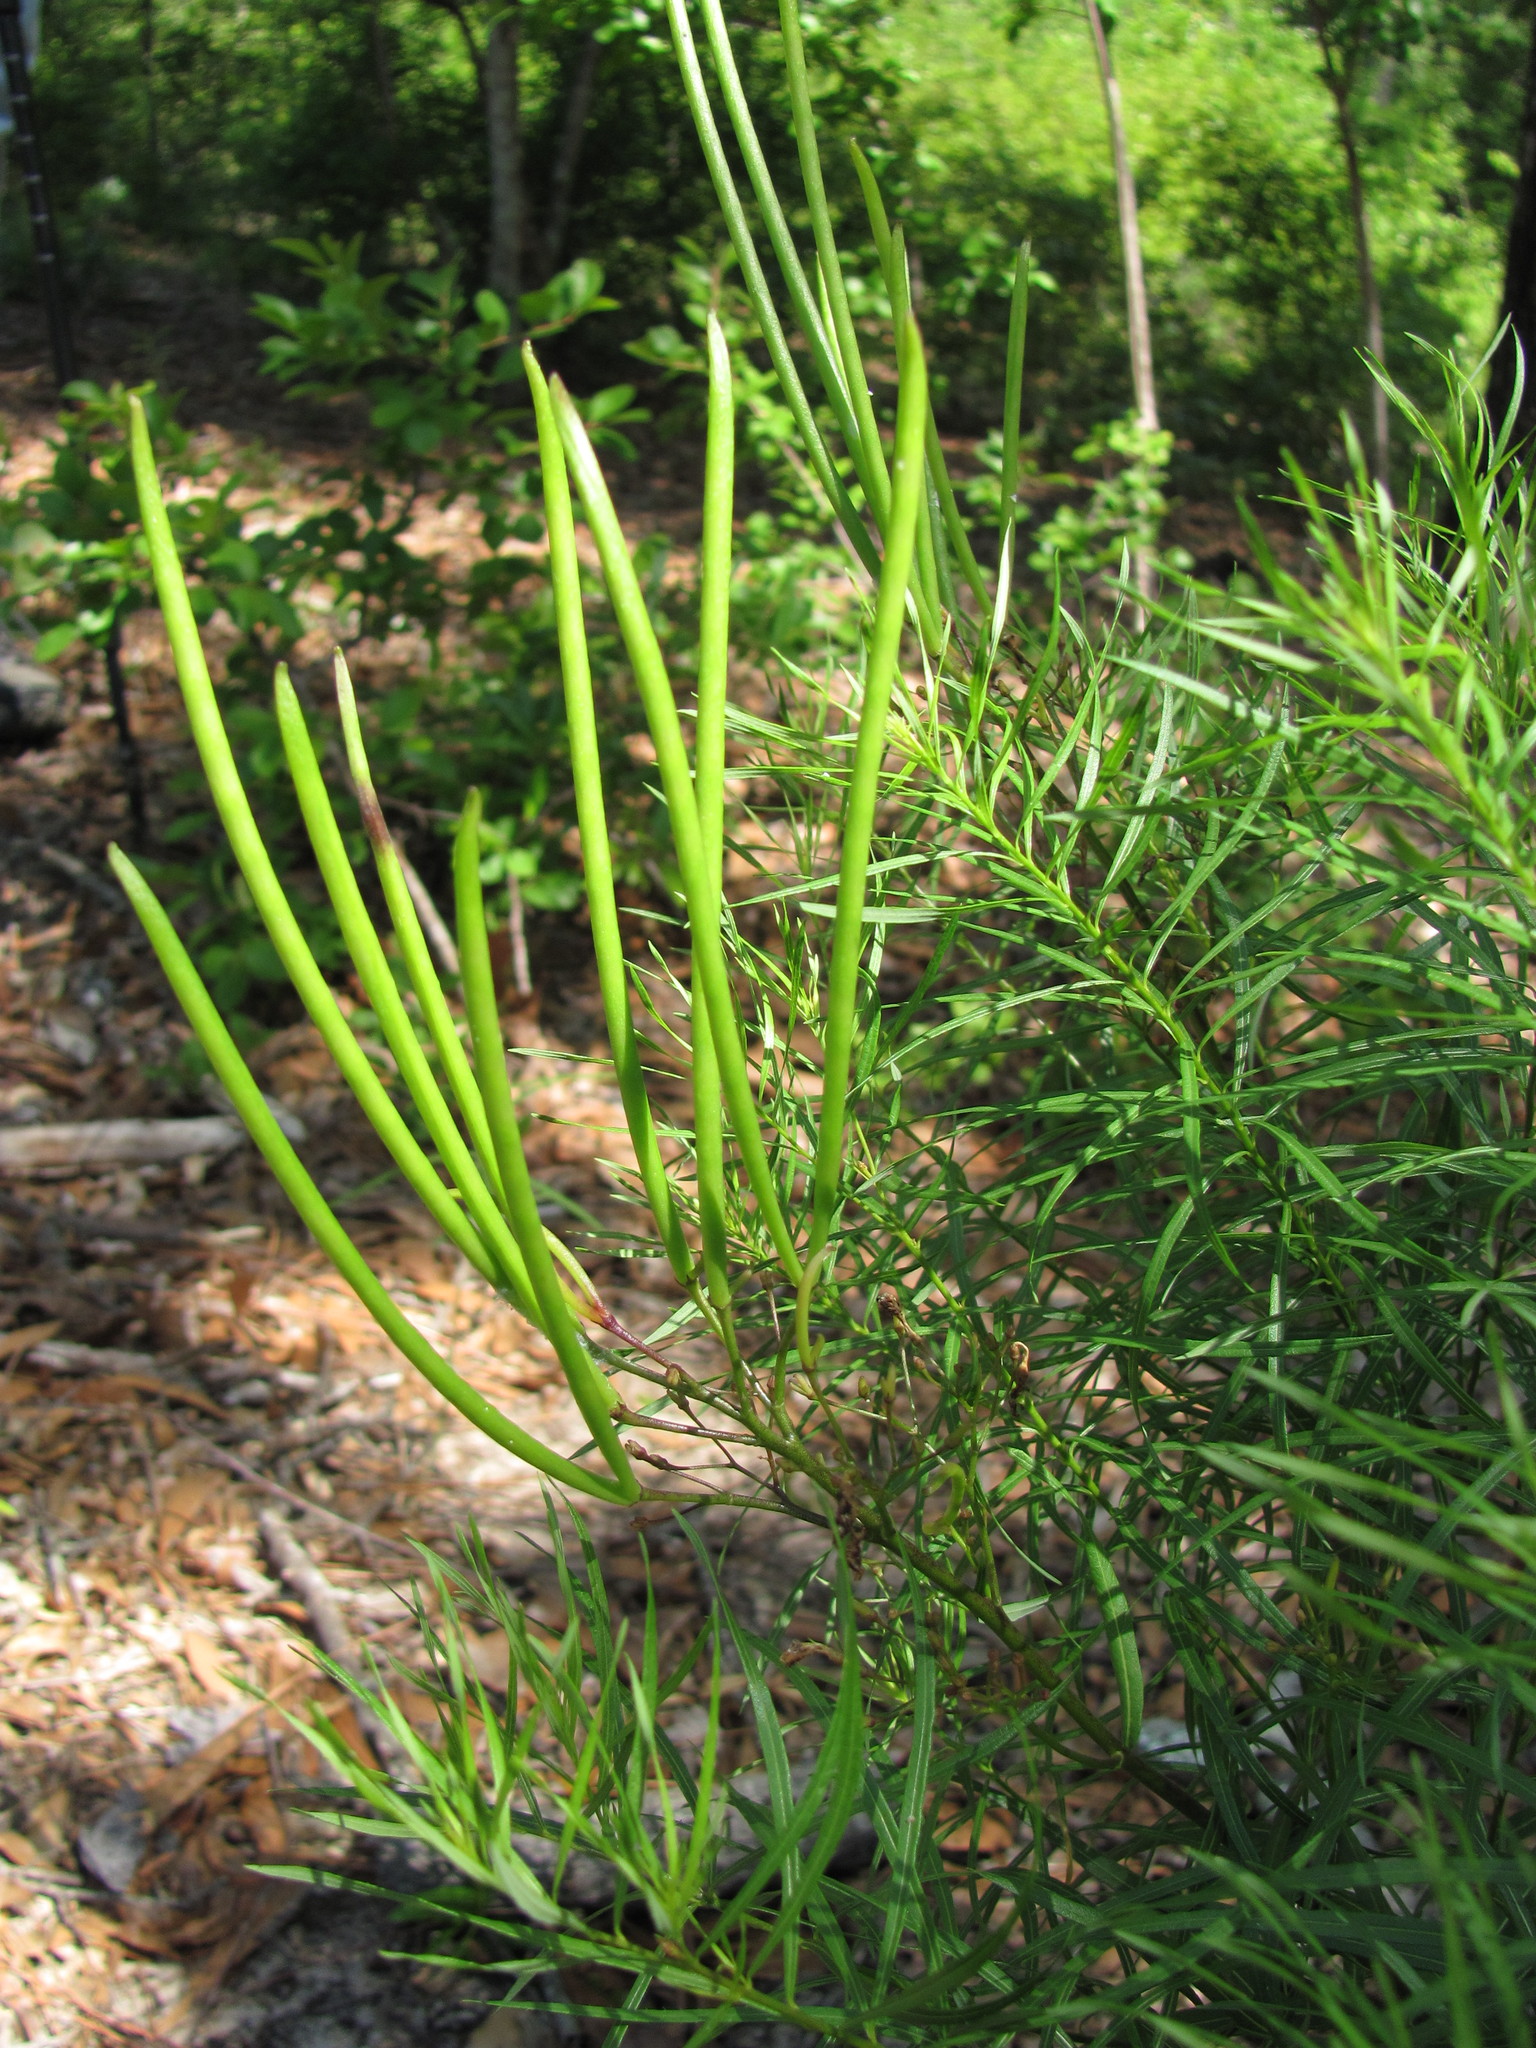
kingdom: Plantae
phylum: Tracheophyta
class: Magnoliopsida
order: Gentianales
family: Apocynaceae
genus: Amsonia
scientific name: Amsonia ciliata
